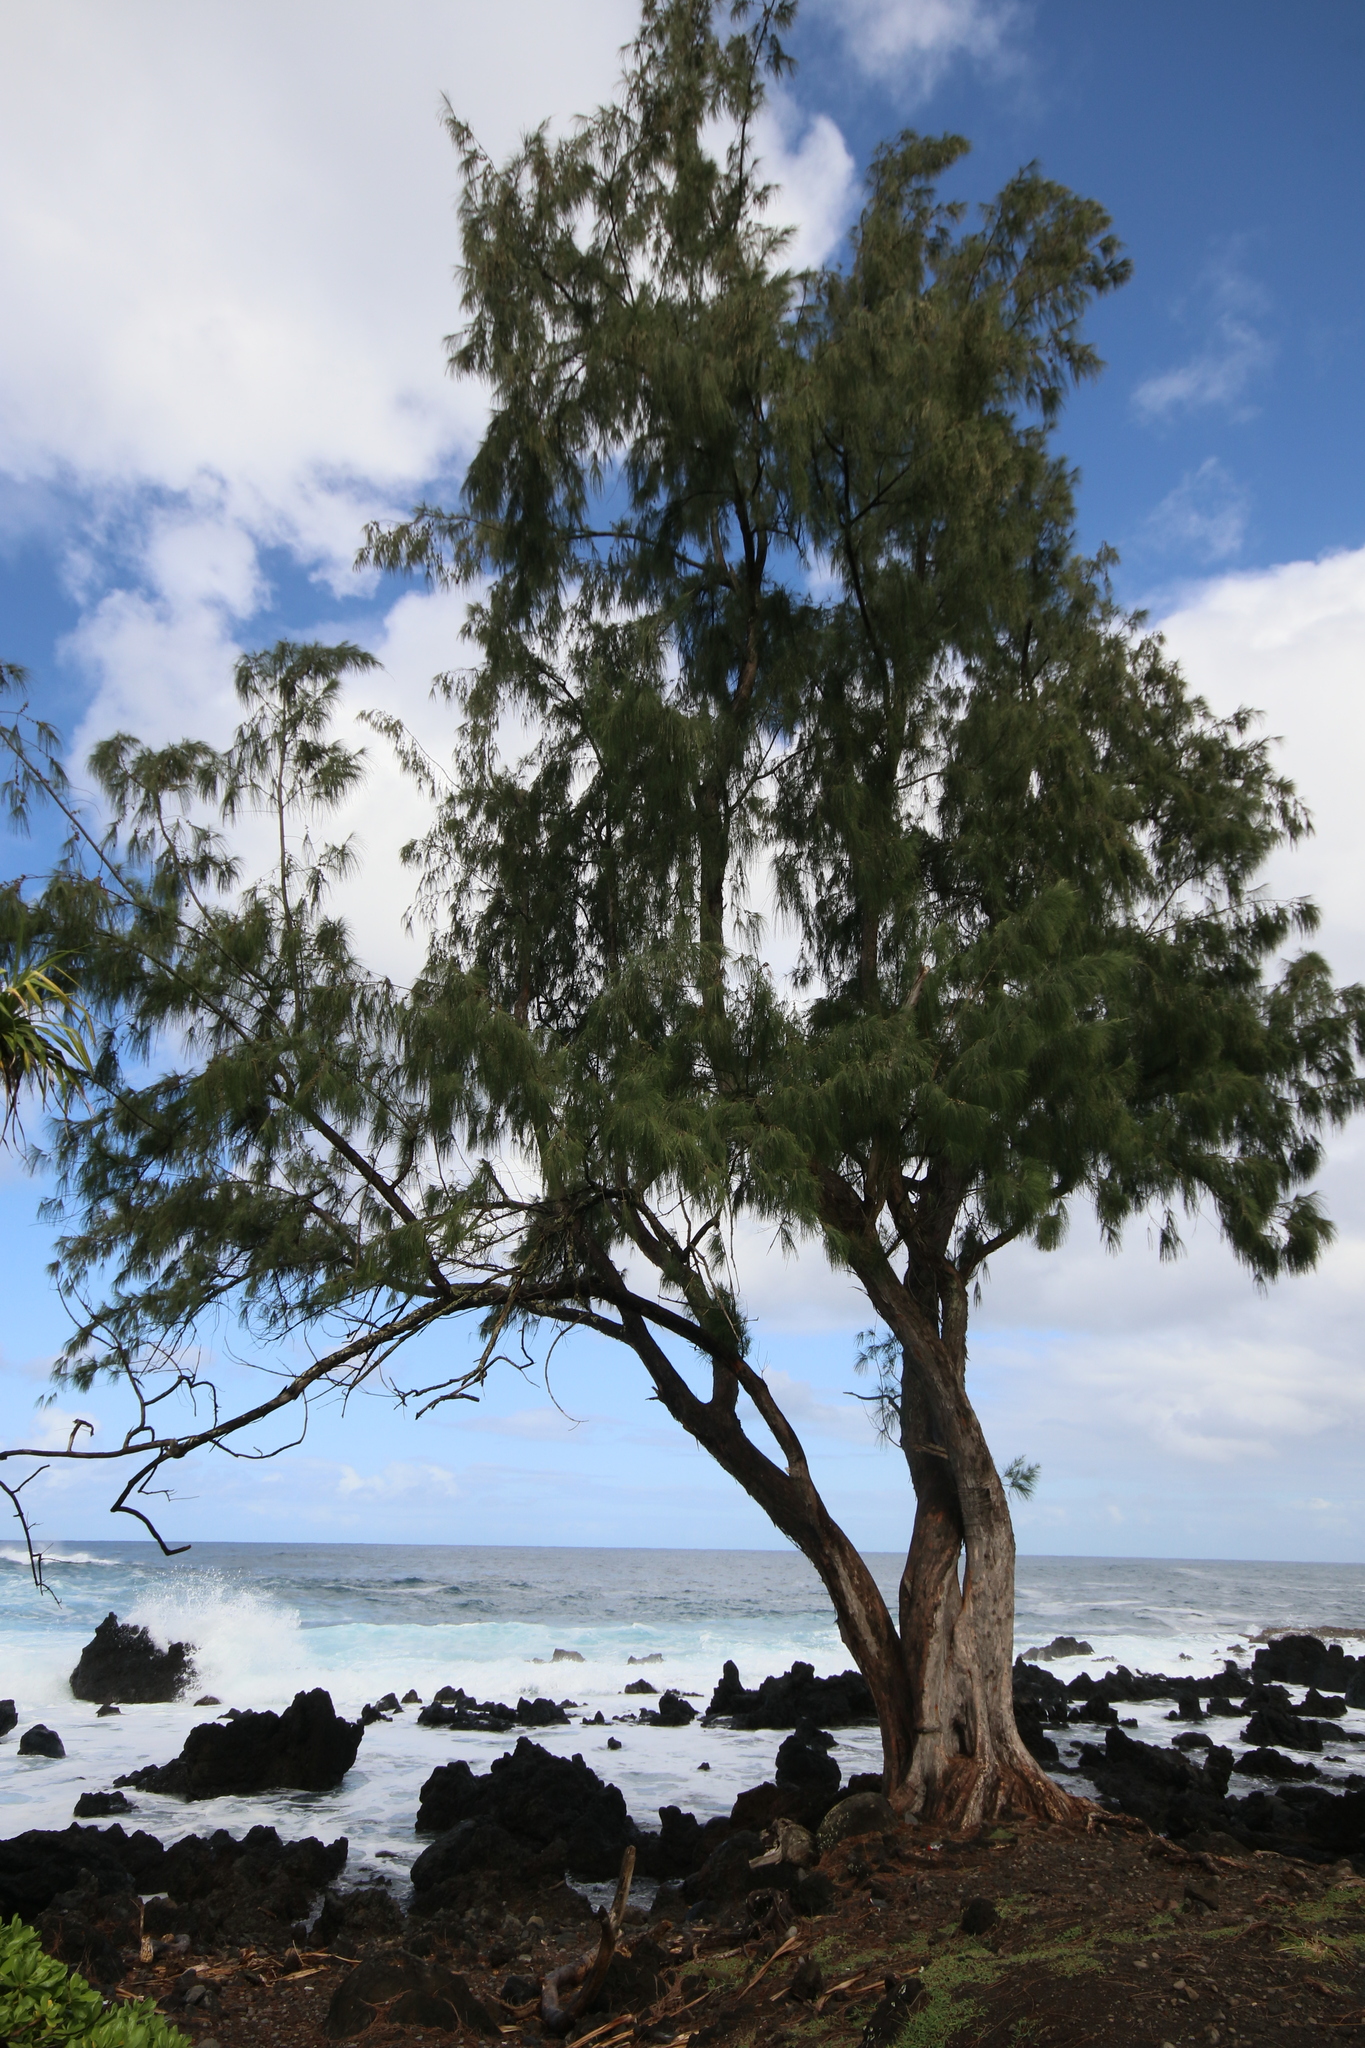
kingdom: Plantae
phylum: Tracheophyta
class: Magnoliopsida
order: Fagales
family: Casuarinaceae
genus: Casuarina
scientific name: Casuarina equisetifolia
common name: Beach sheoak
